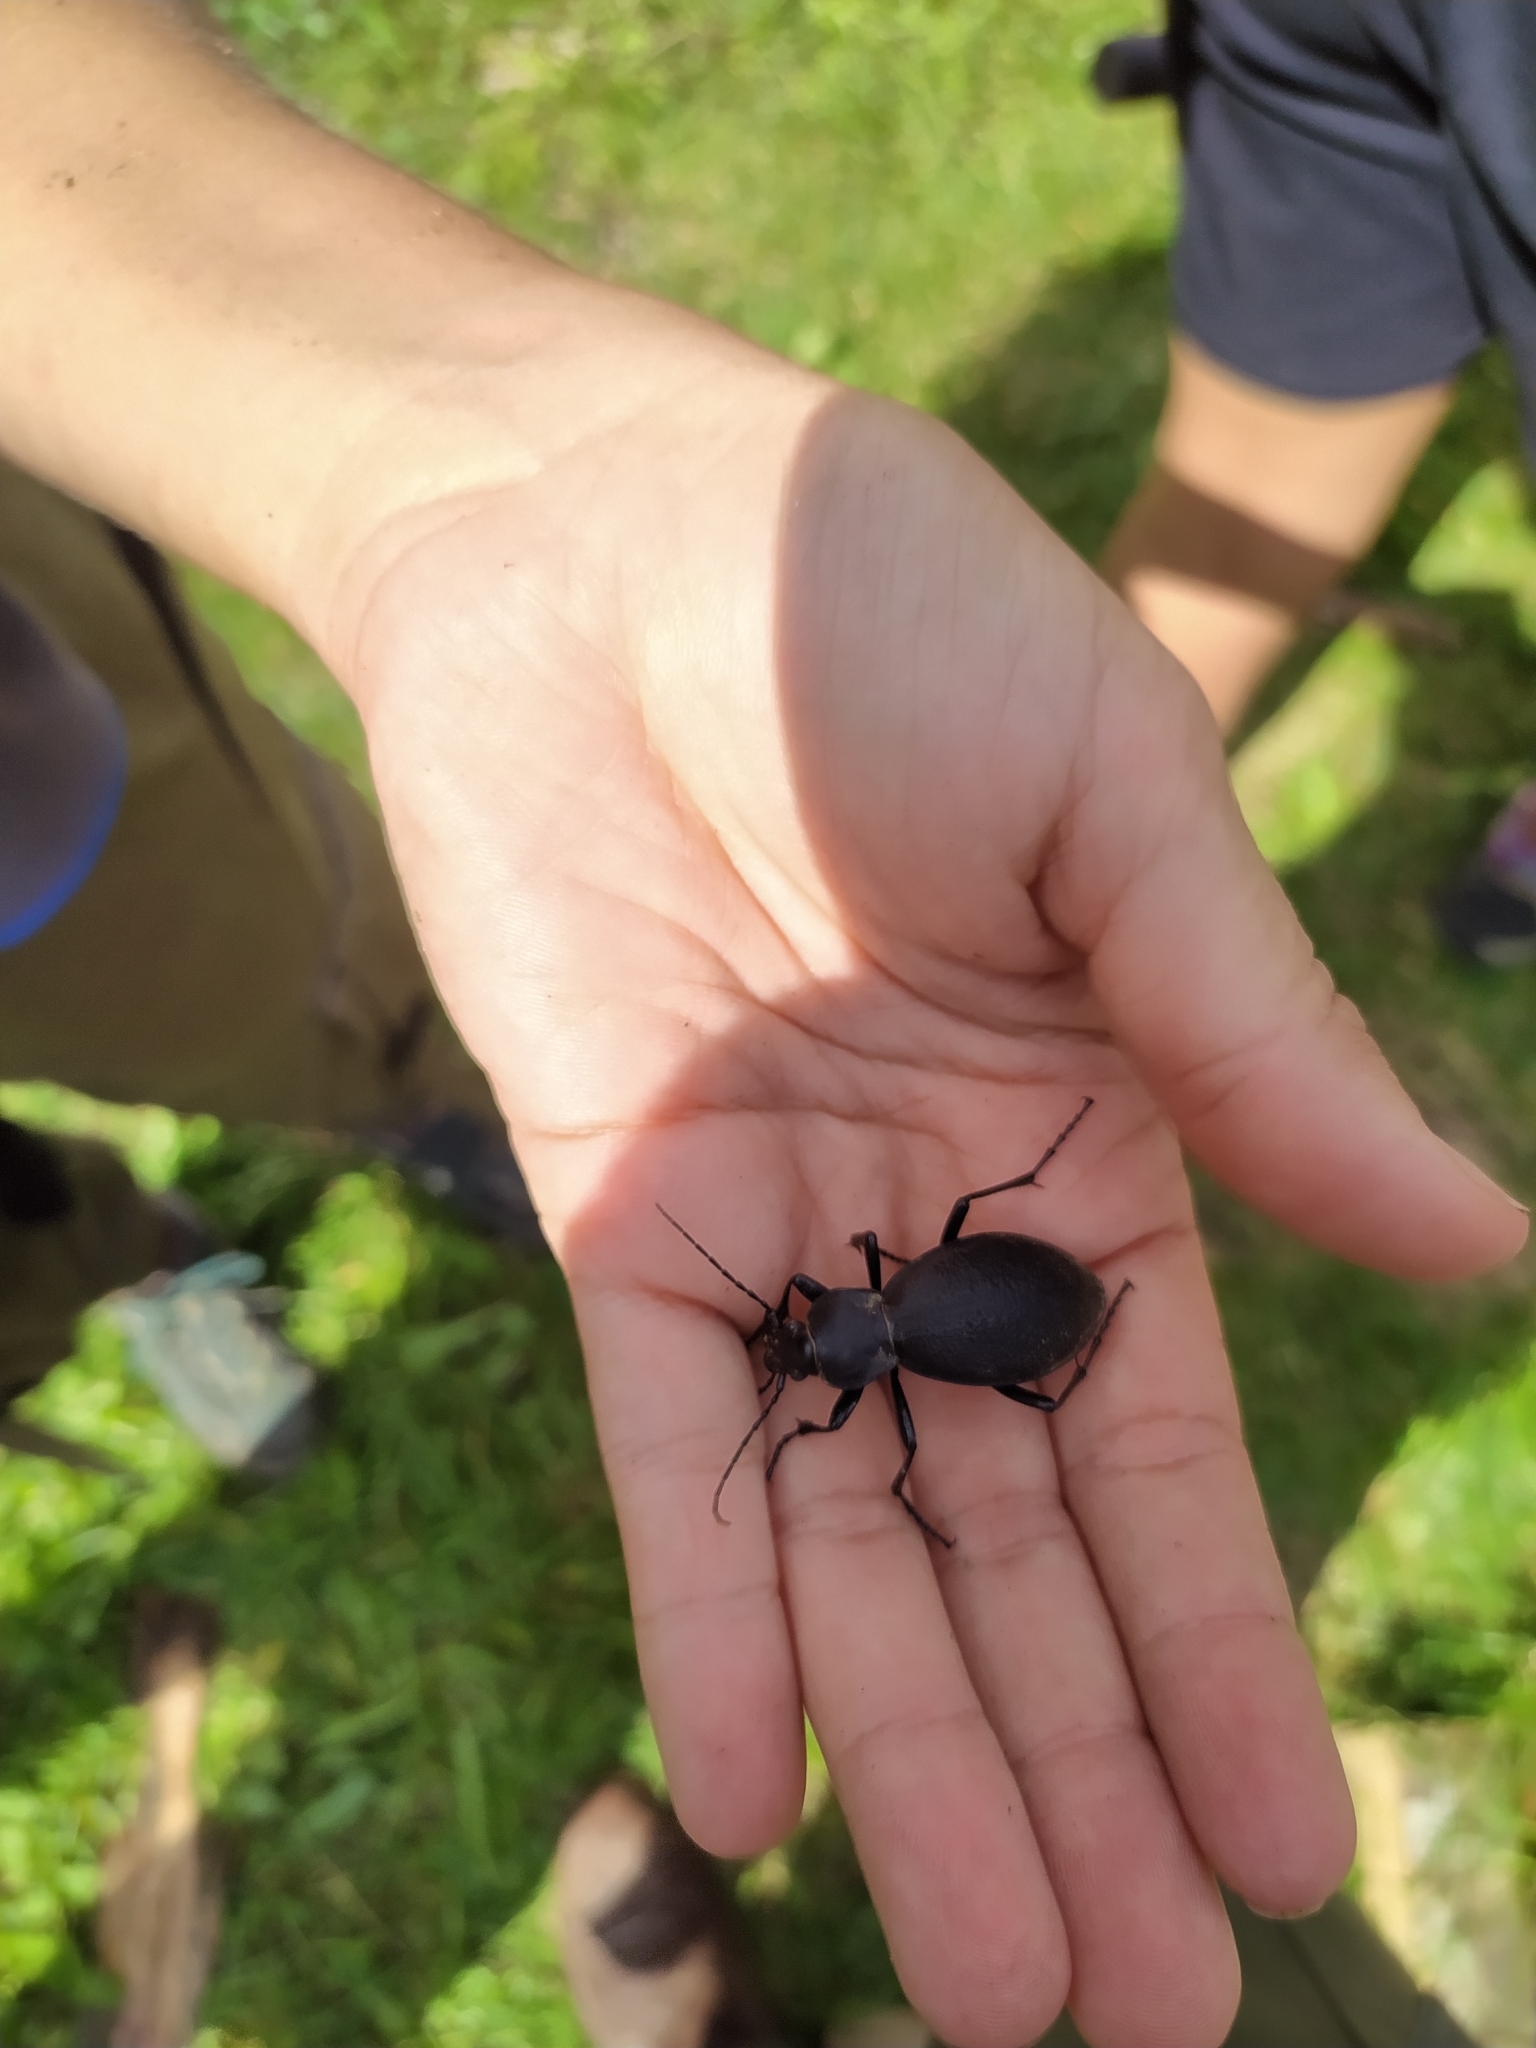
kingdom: Animalia
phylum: Arthropoda
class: Insecta
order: Coleoptera
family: Carabidae
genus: Carabus
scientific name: Carabus coriaceus
